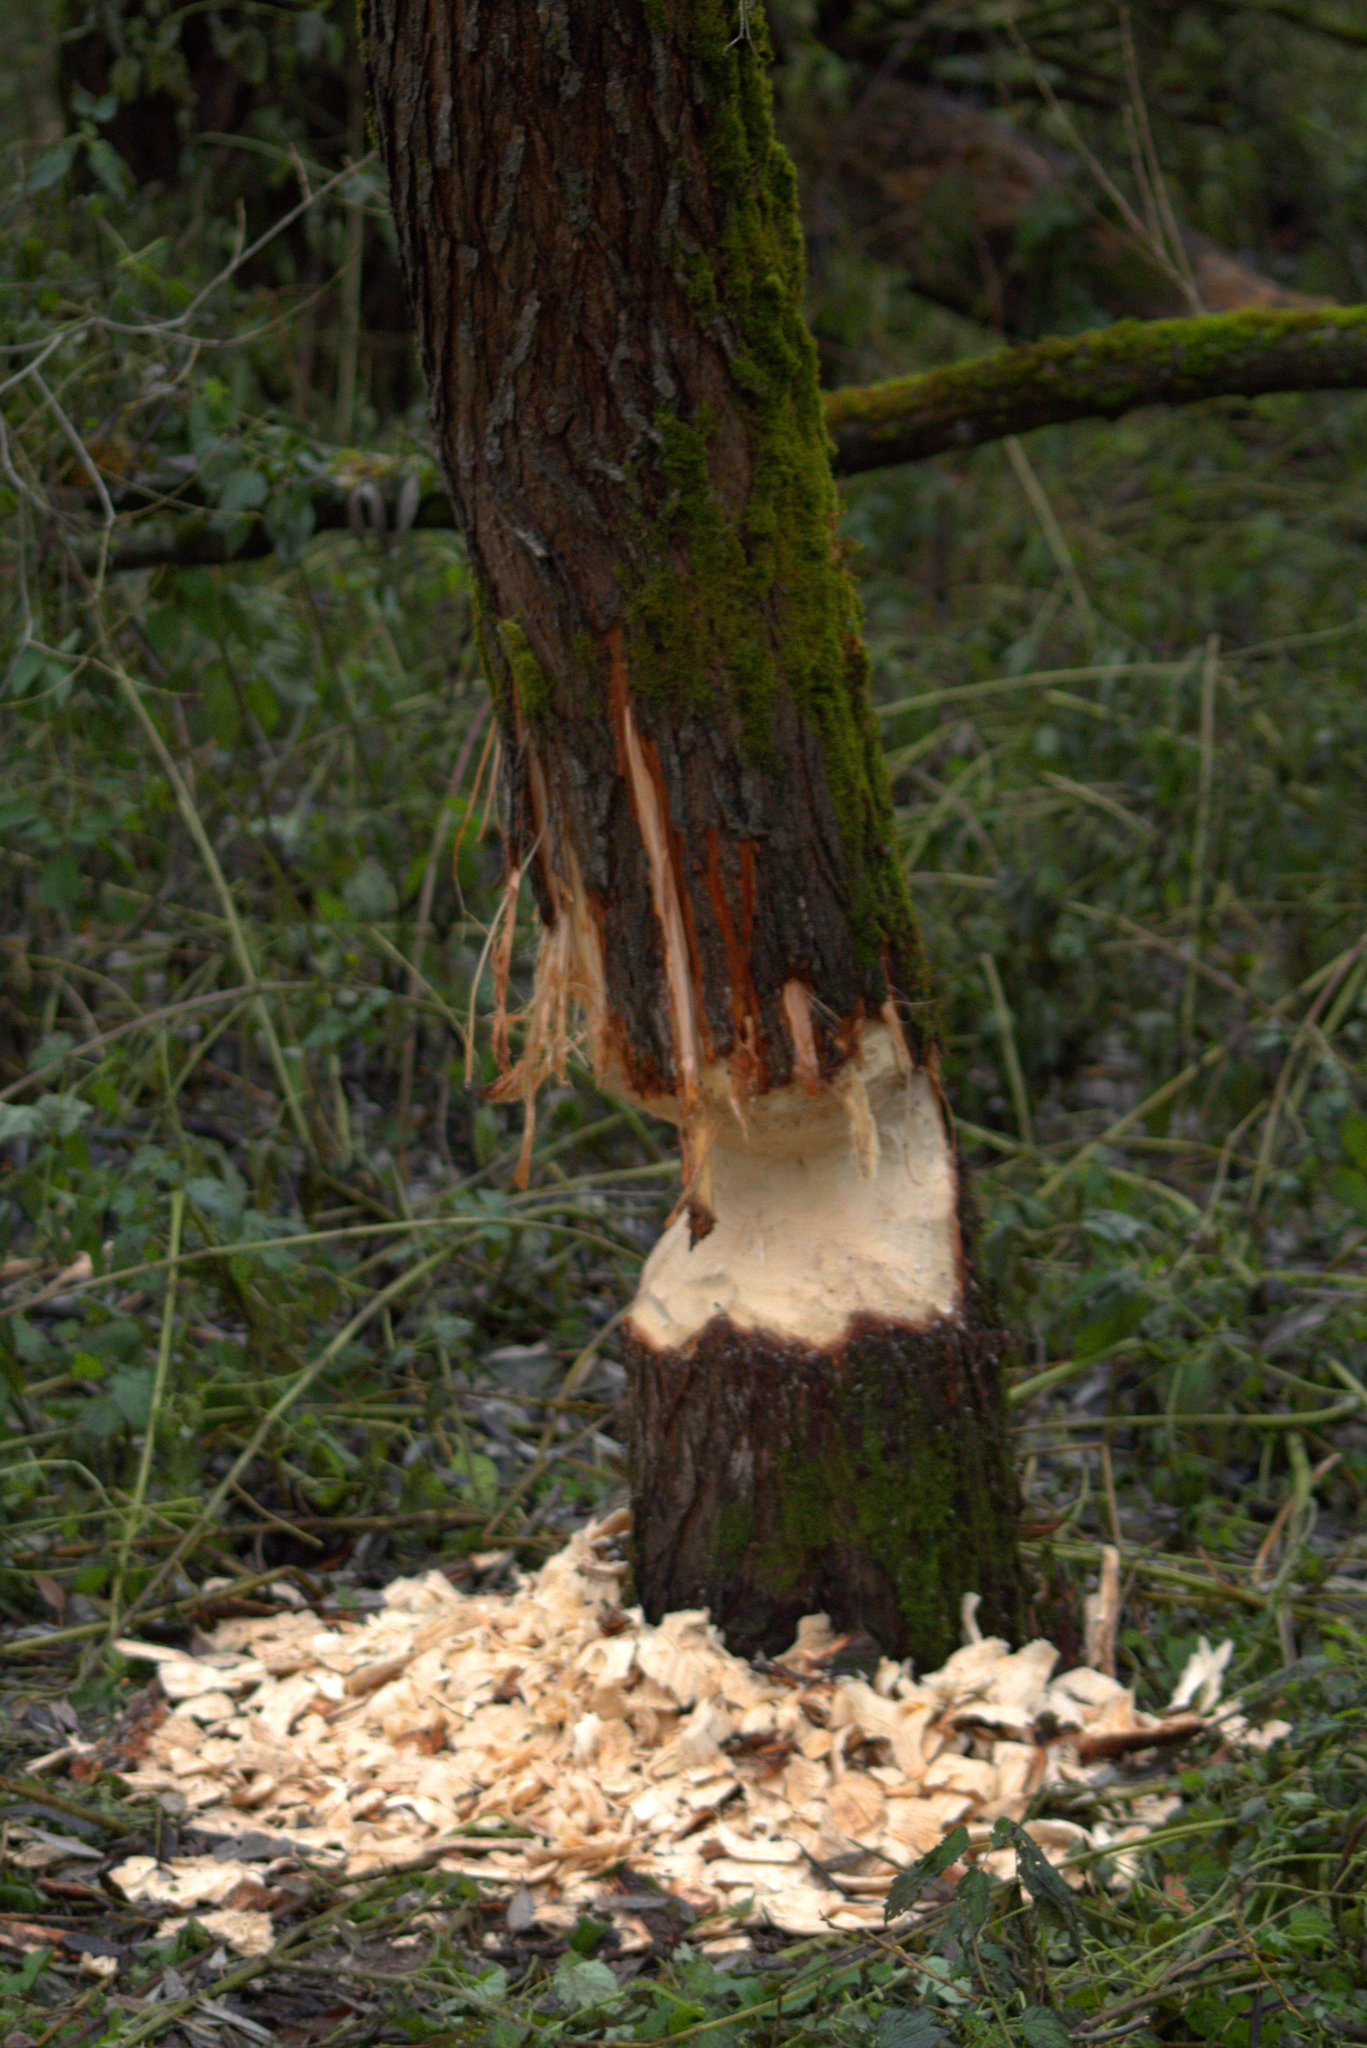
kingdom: Animalia
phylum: Chordata
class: Mammalia
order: Rodentia
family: Castoridae
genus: Castor
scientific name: Castor fiber
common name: Eurasian beaver
